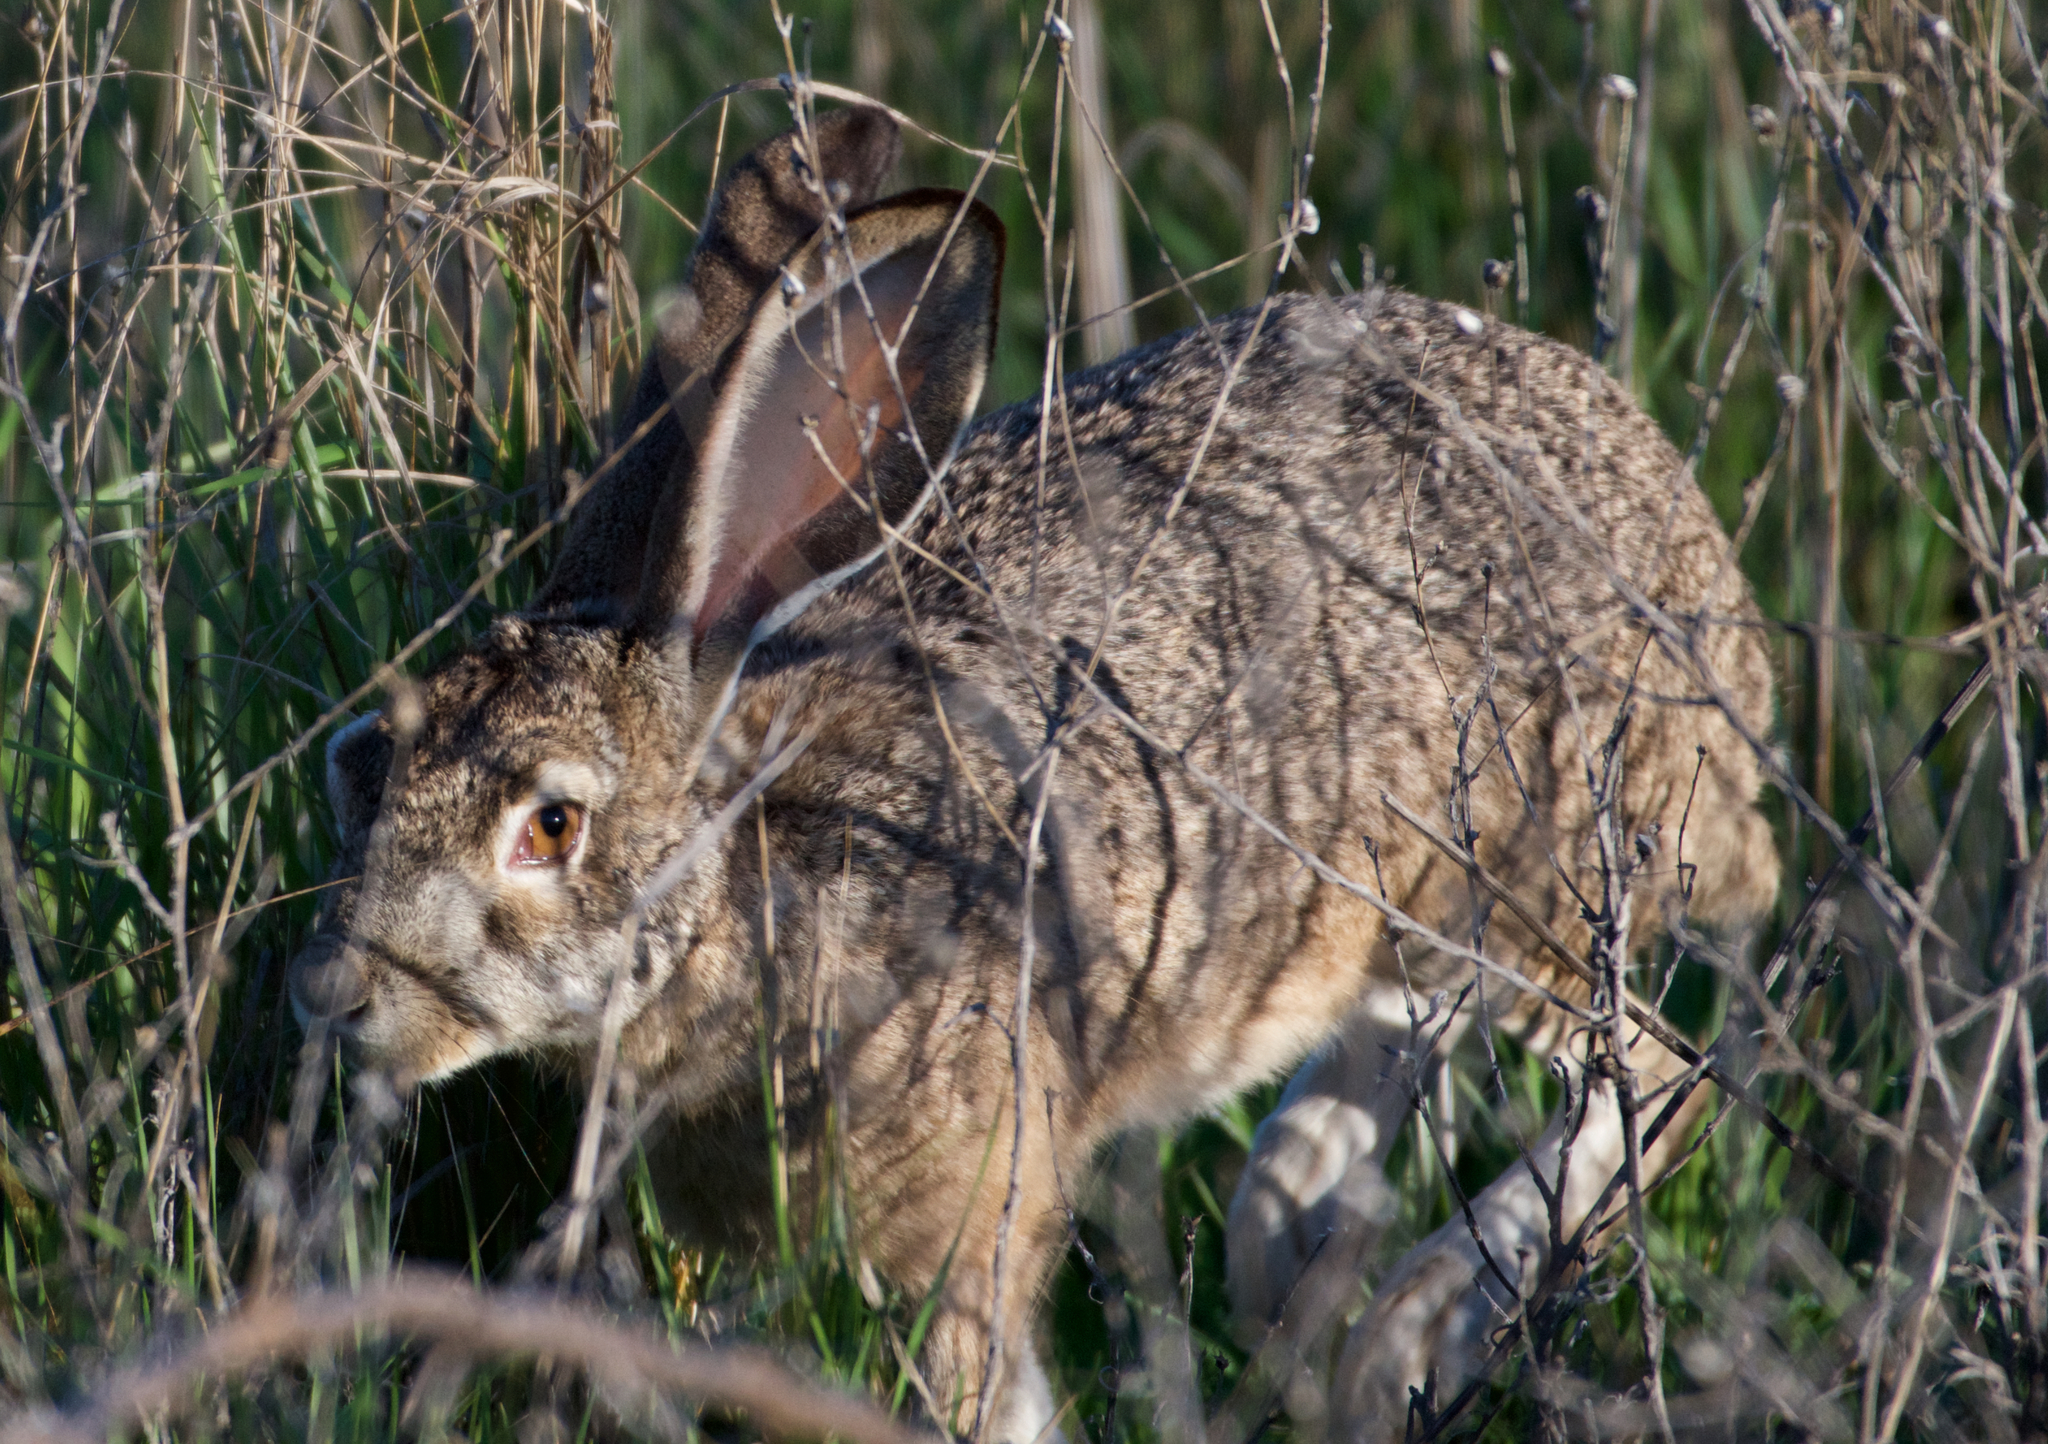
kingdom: Animalia
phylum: Chordata
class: Mammalia
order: Lagomorpha
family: Leporidae
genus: Lepus
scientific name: Lepus californicus
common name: Black-tailed jackrabbit
